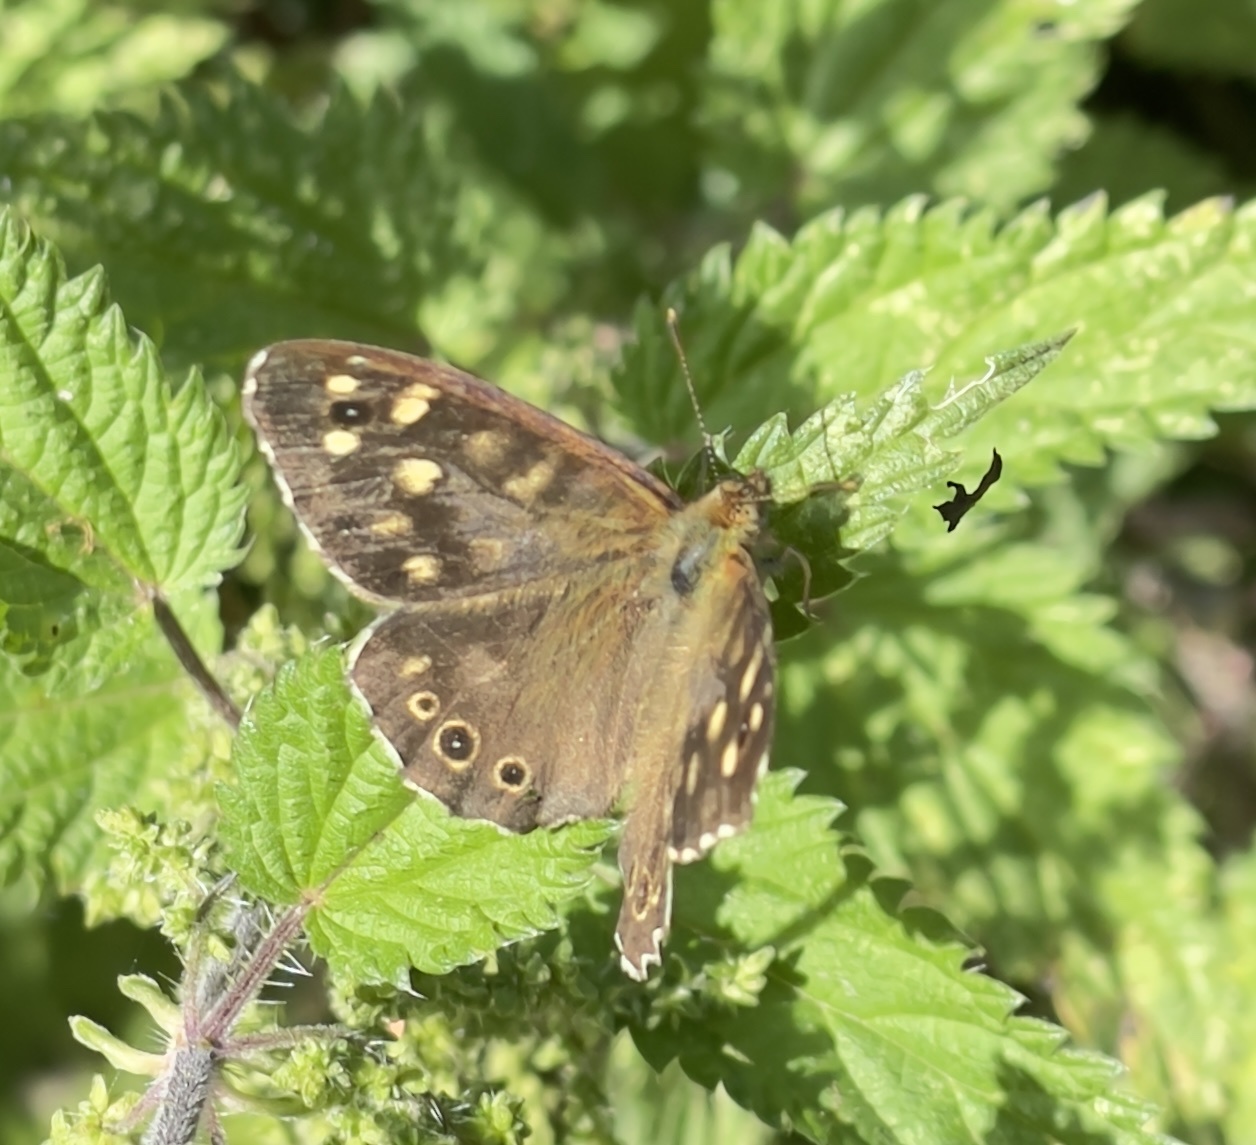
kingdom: Animalia
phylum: Arthropoda
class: Insecta
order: Lepidoptera
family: Nymphalidae
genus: Pararge
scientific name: Pararge aegeria
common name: Speckled wood
